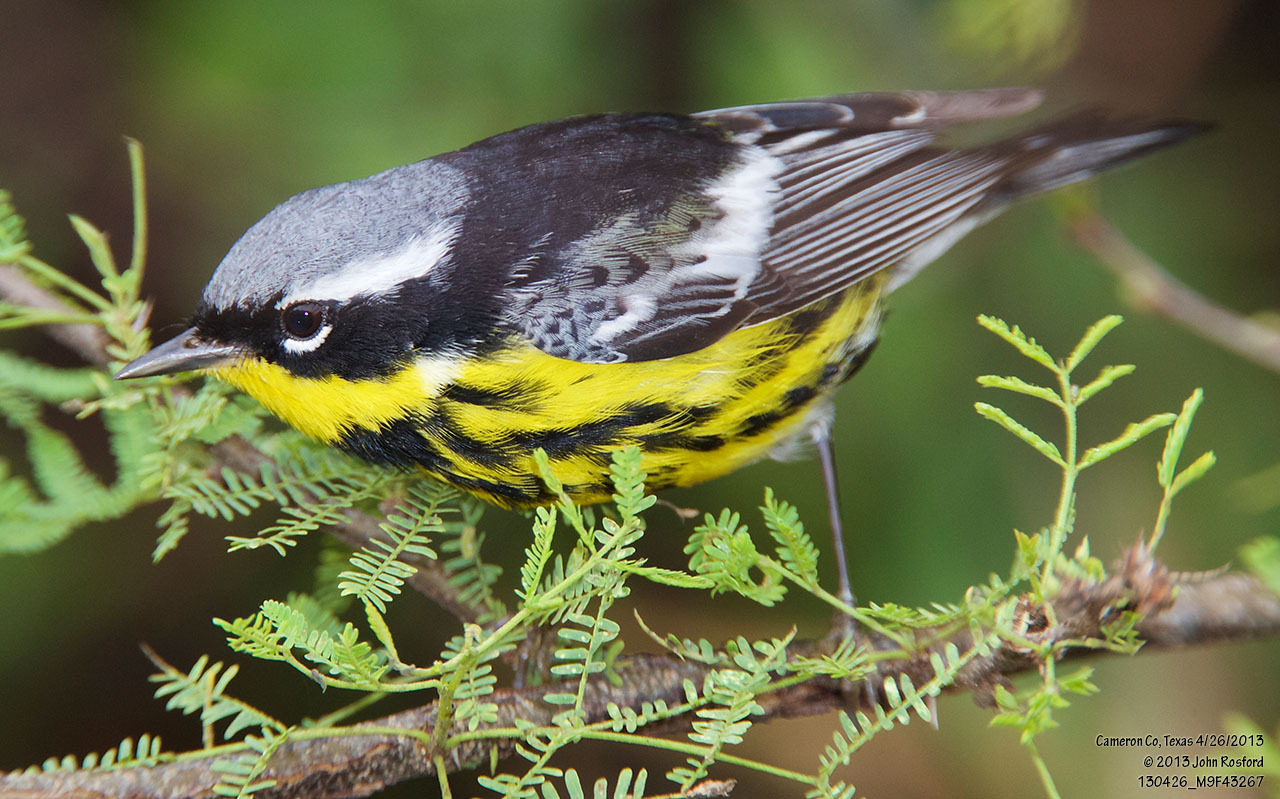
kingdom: Animalia
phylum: Chordata
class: Aves
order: Passeriformes
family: Parulidae
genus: Setophaga
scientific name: Setophaga magnolia
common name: Magnolia warbler
